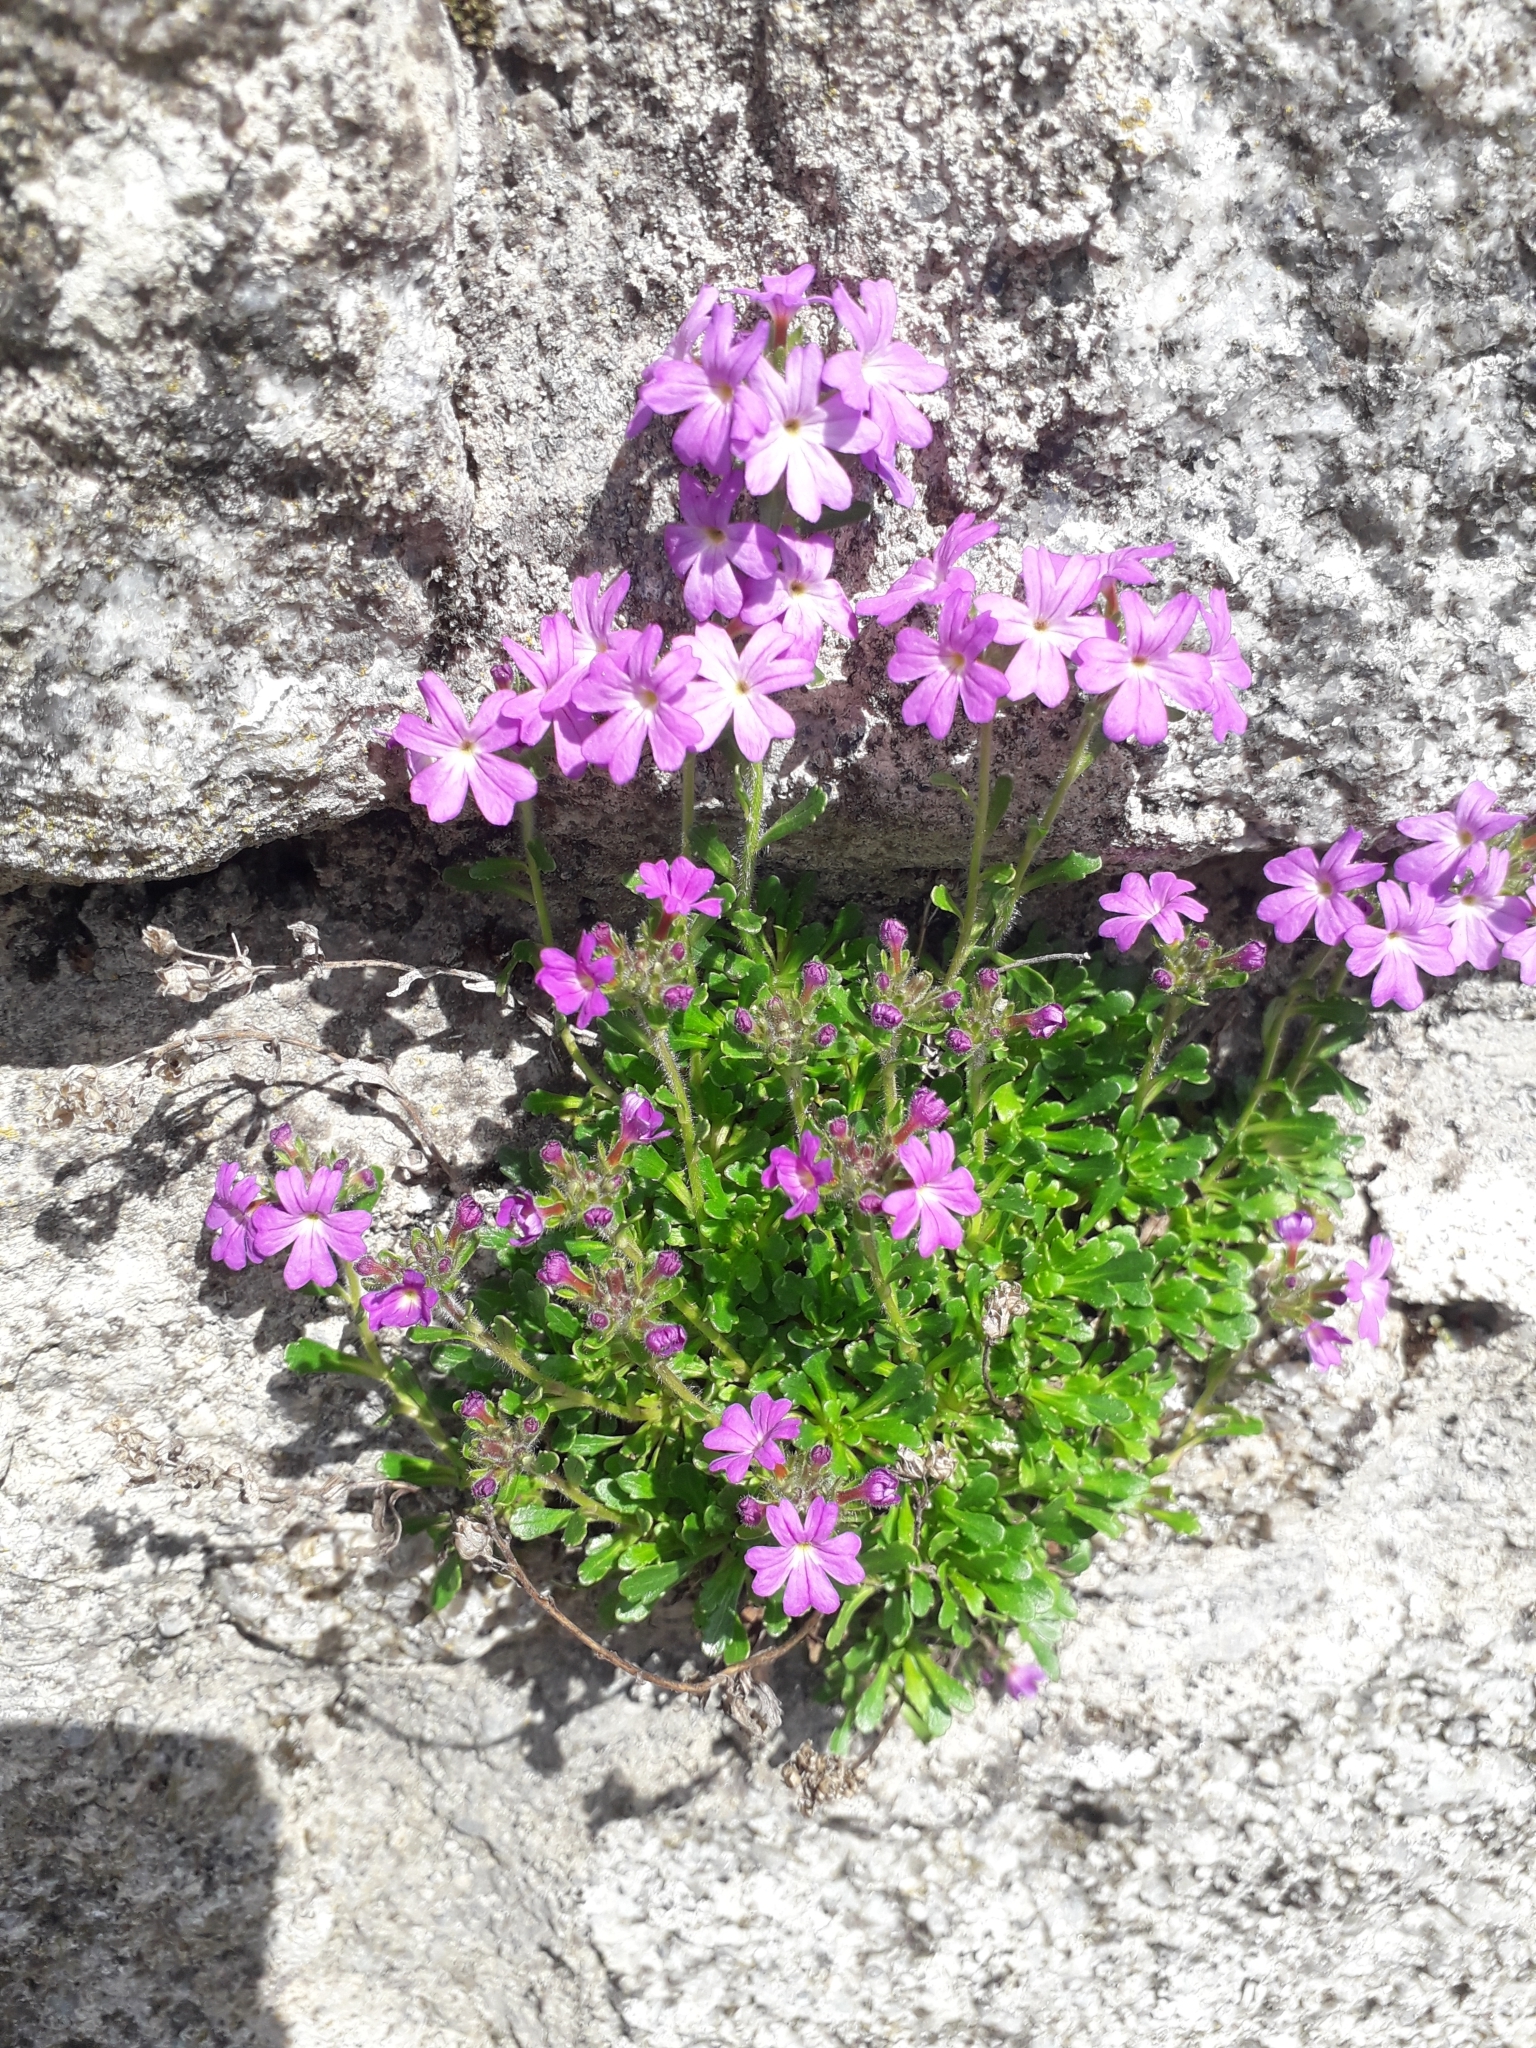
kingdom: Plantae
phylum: Tracheophyta
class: Magnoliopsida
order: Lamiales
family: Plantaginaceae
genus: Erinus
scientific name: Erinus alpinus
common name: Fairy foxglove
